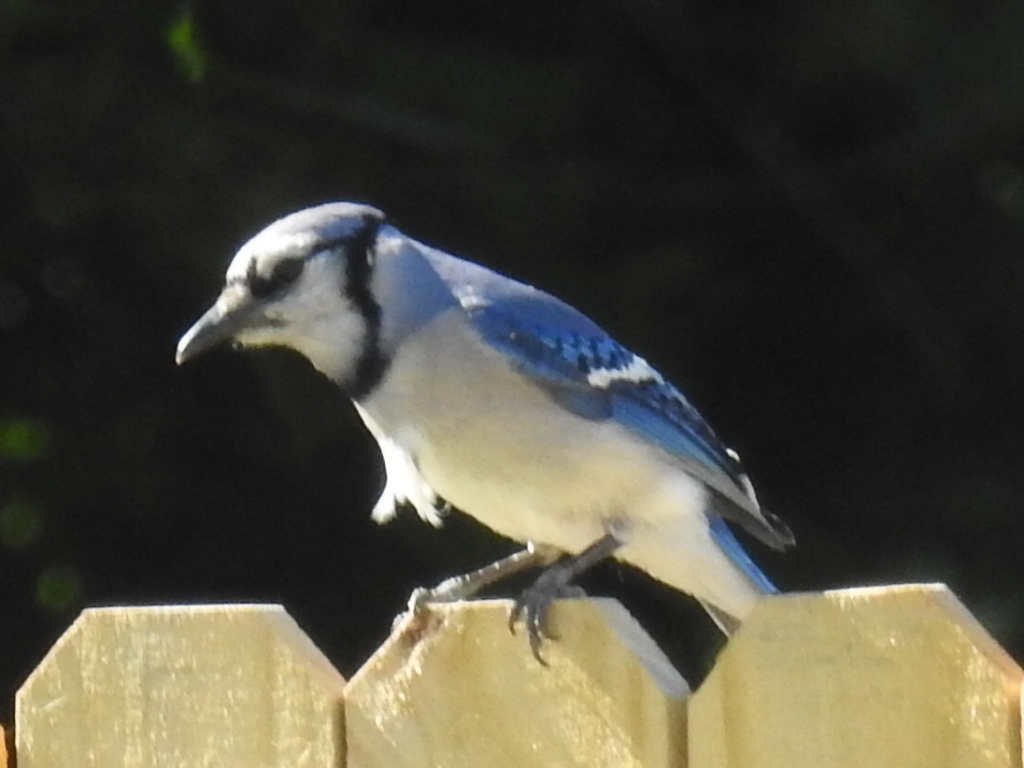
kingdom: Animalia
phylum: Chordata
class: Aves
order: Passeriformes
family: Corvidae
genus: Cyanocitta
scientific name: Cyanocitta cristata
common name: Blue jay
